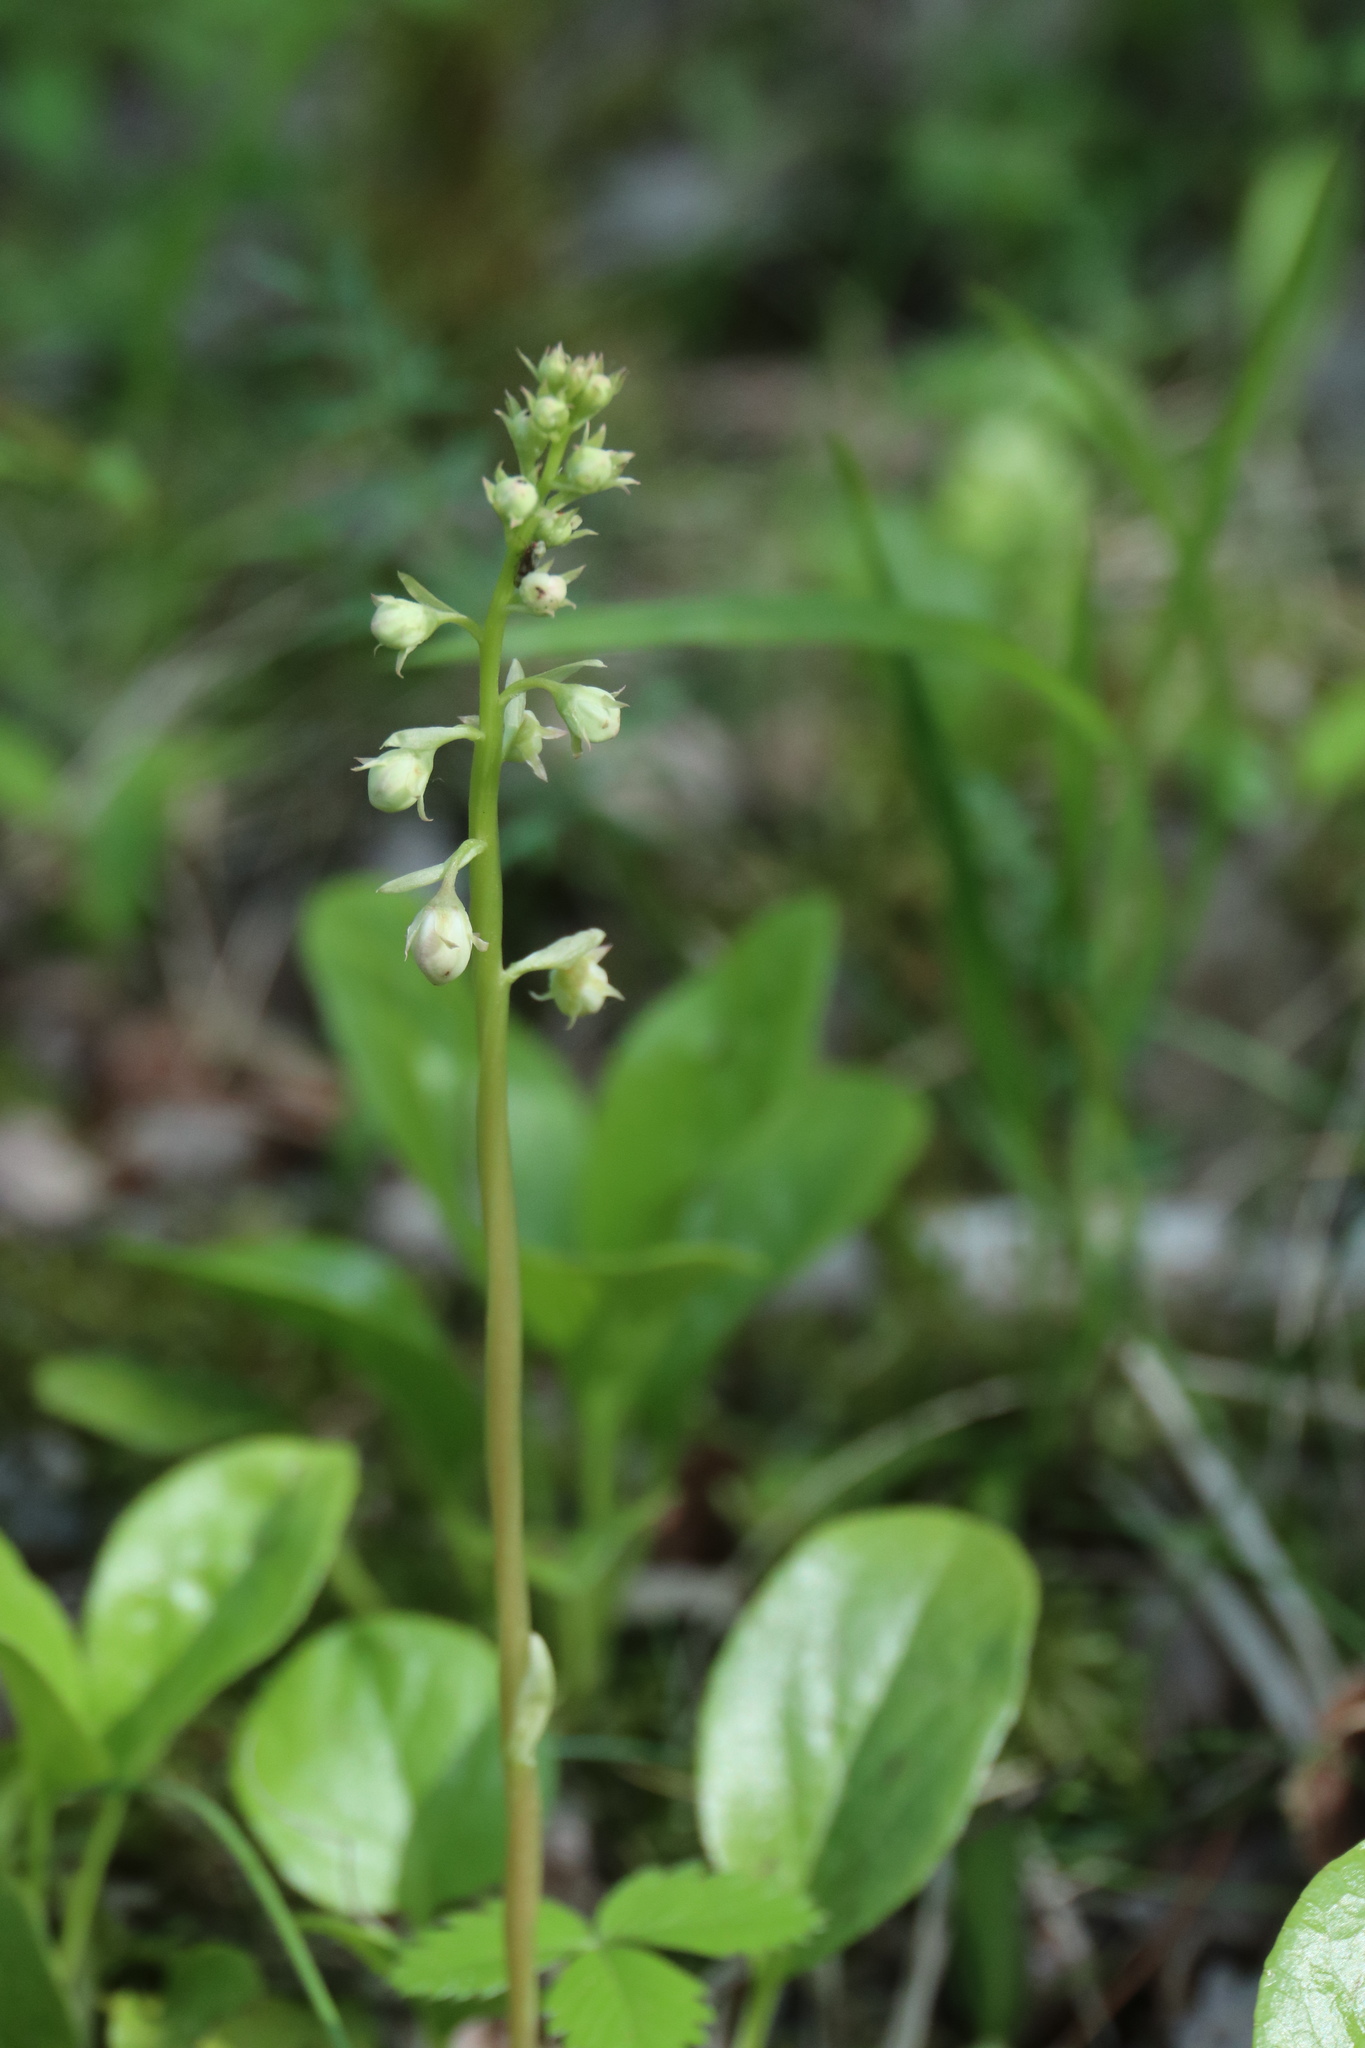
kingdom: Plantae
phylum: Tracheophyta
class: Magnoliopsida
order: Ericales
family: Ericaceae
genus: Pyrola
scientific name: Pyrola rotundifolia
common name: Round-leaved wintergreen
